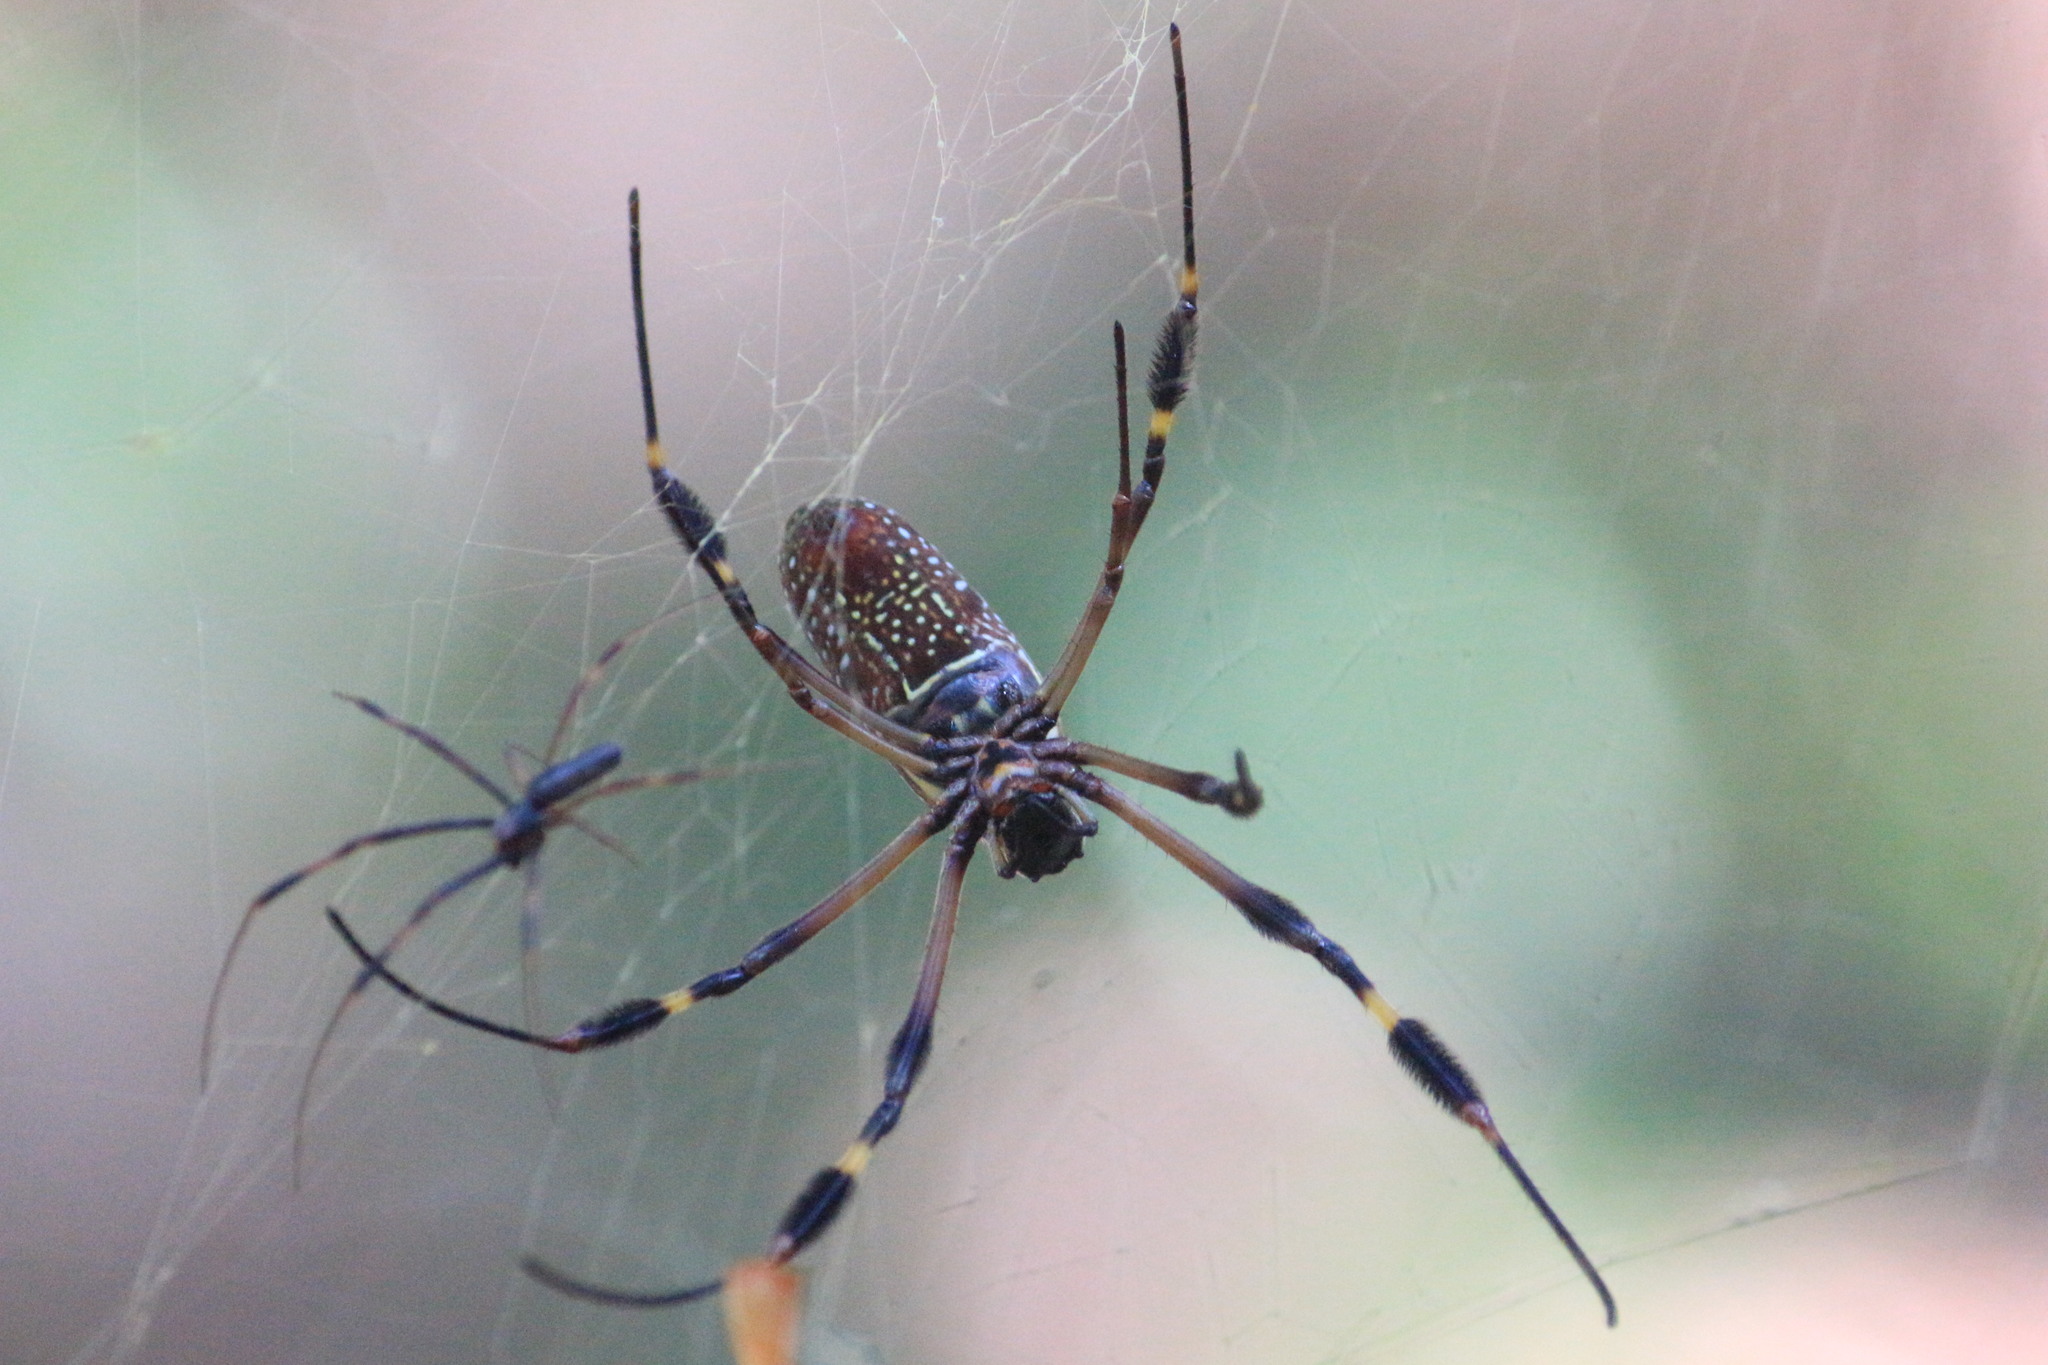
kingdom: Animalia
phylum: Arthropoda
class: Arachnida
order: Araneae
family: Araneidae
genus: Trichonephila
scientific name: Trichonephila clavipes
